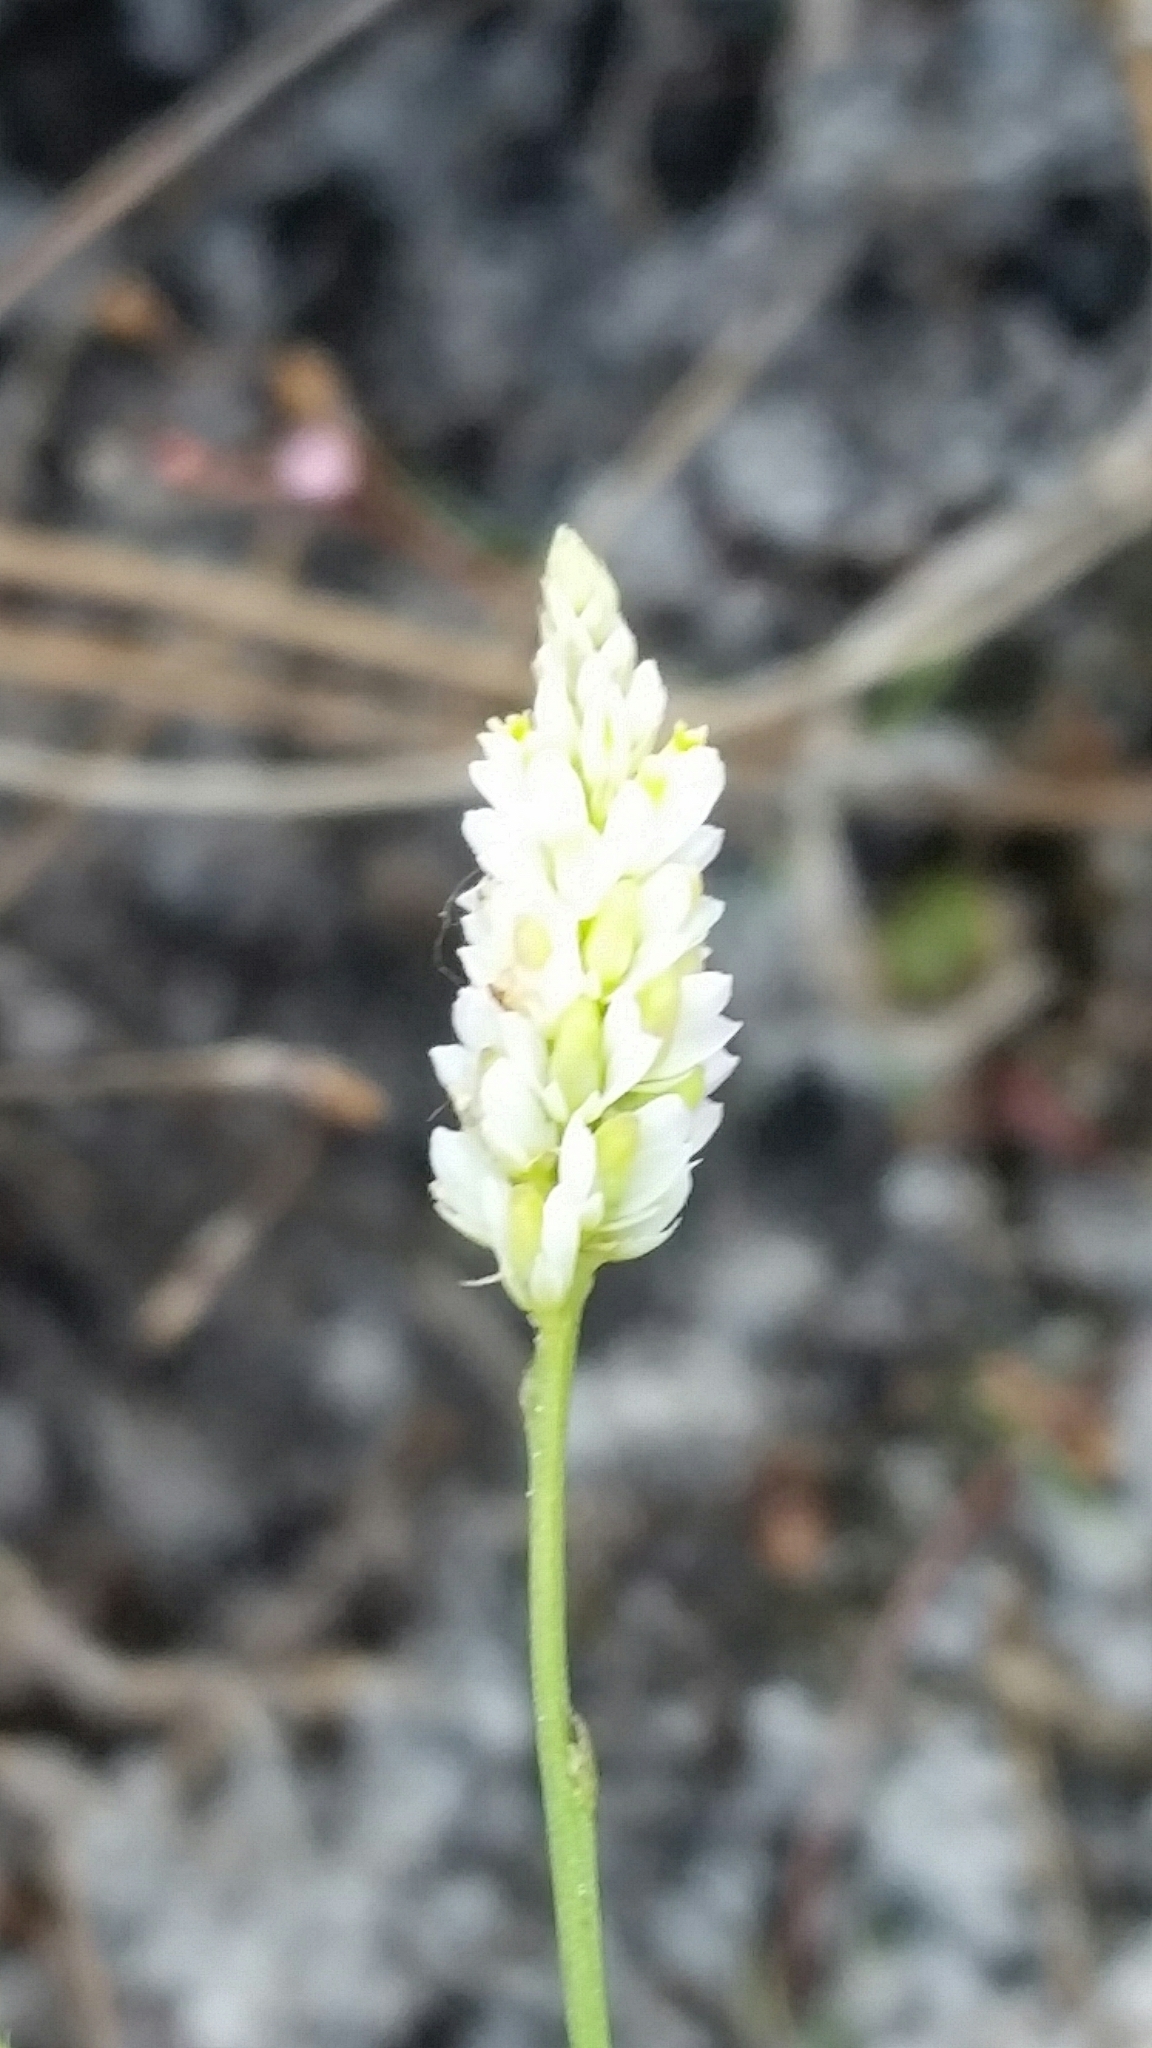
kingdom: Plantae
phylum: Tracheophyta
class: Magnoliopsida
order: Fabales
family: Polygalaceae
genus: Polygala
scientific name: Polygala setacea
